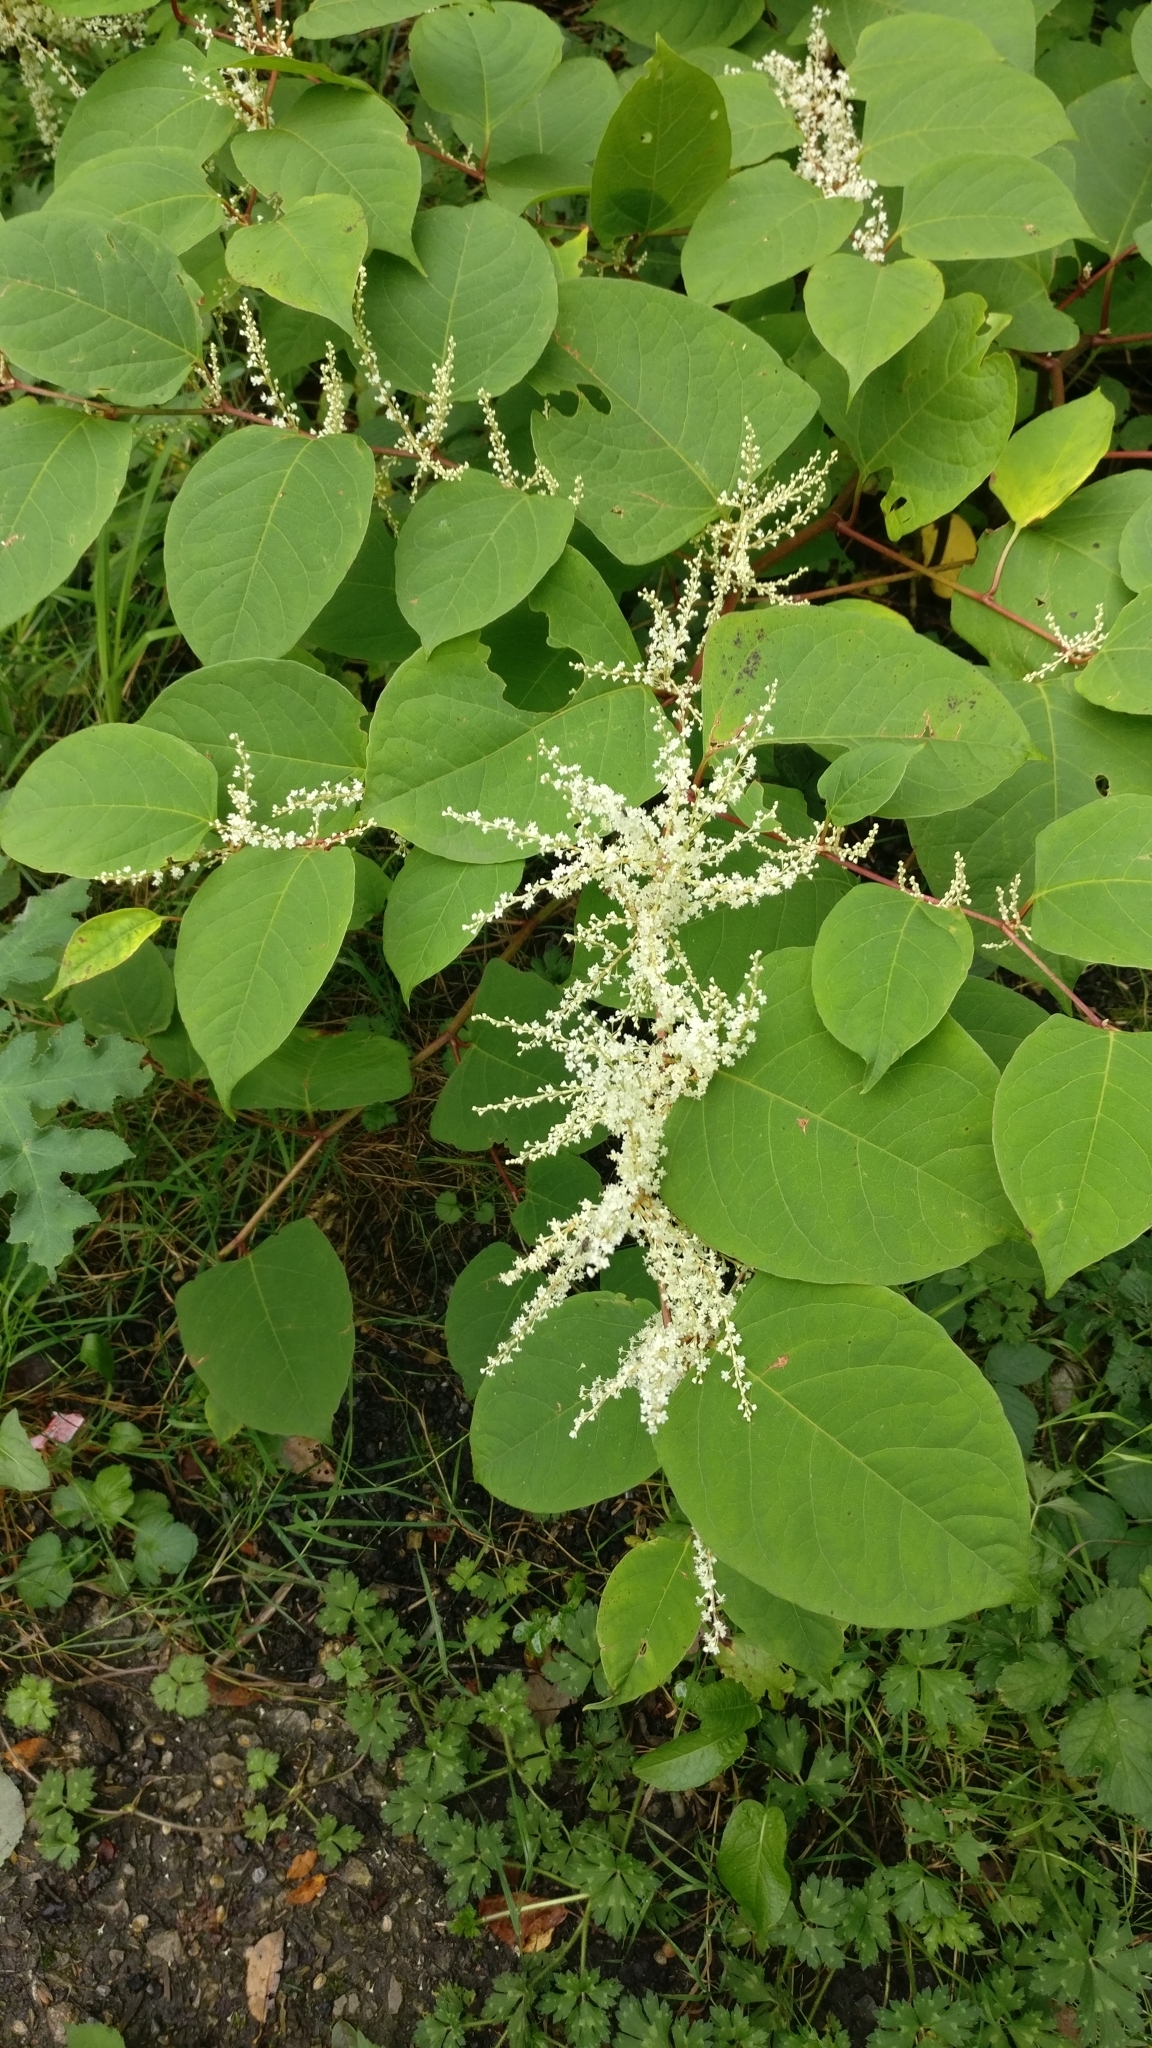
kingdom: Plantae
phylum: Tracheophyta
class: Magnoliopsida
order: Caryophyllales
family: Polygonaceae
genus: Reynoutria
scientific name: Reynoutria japonica
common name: Japanese knotweed
